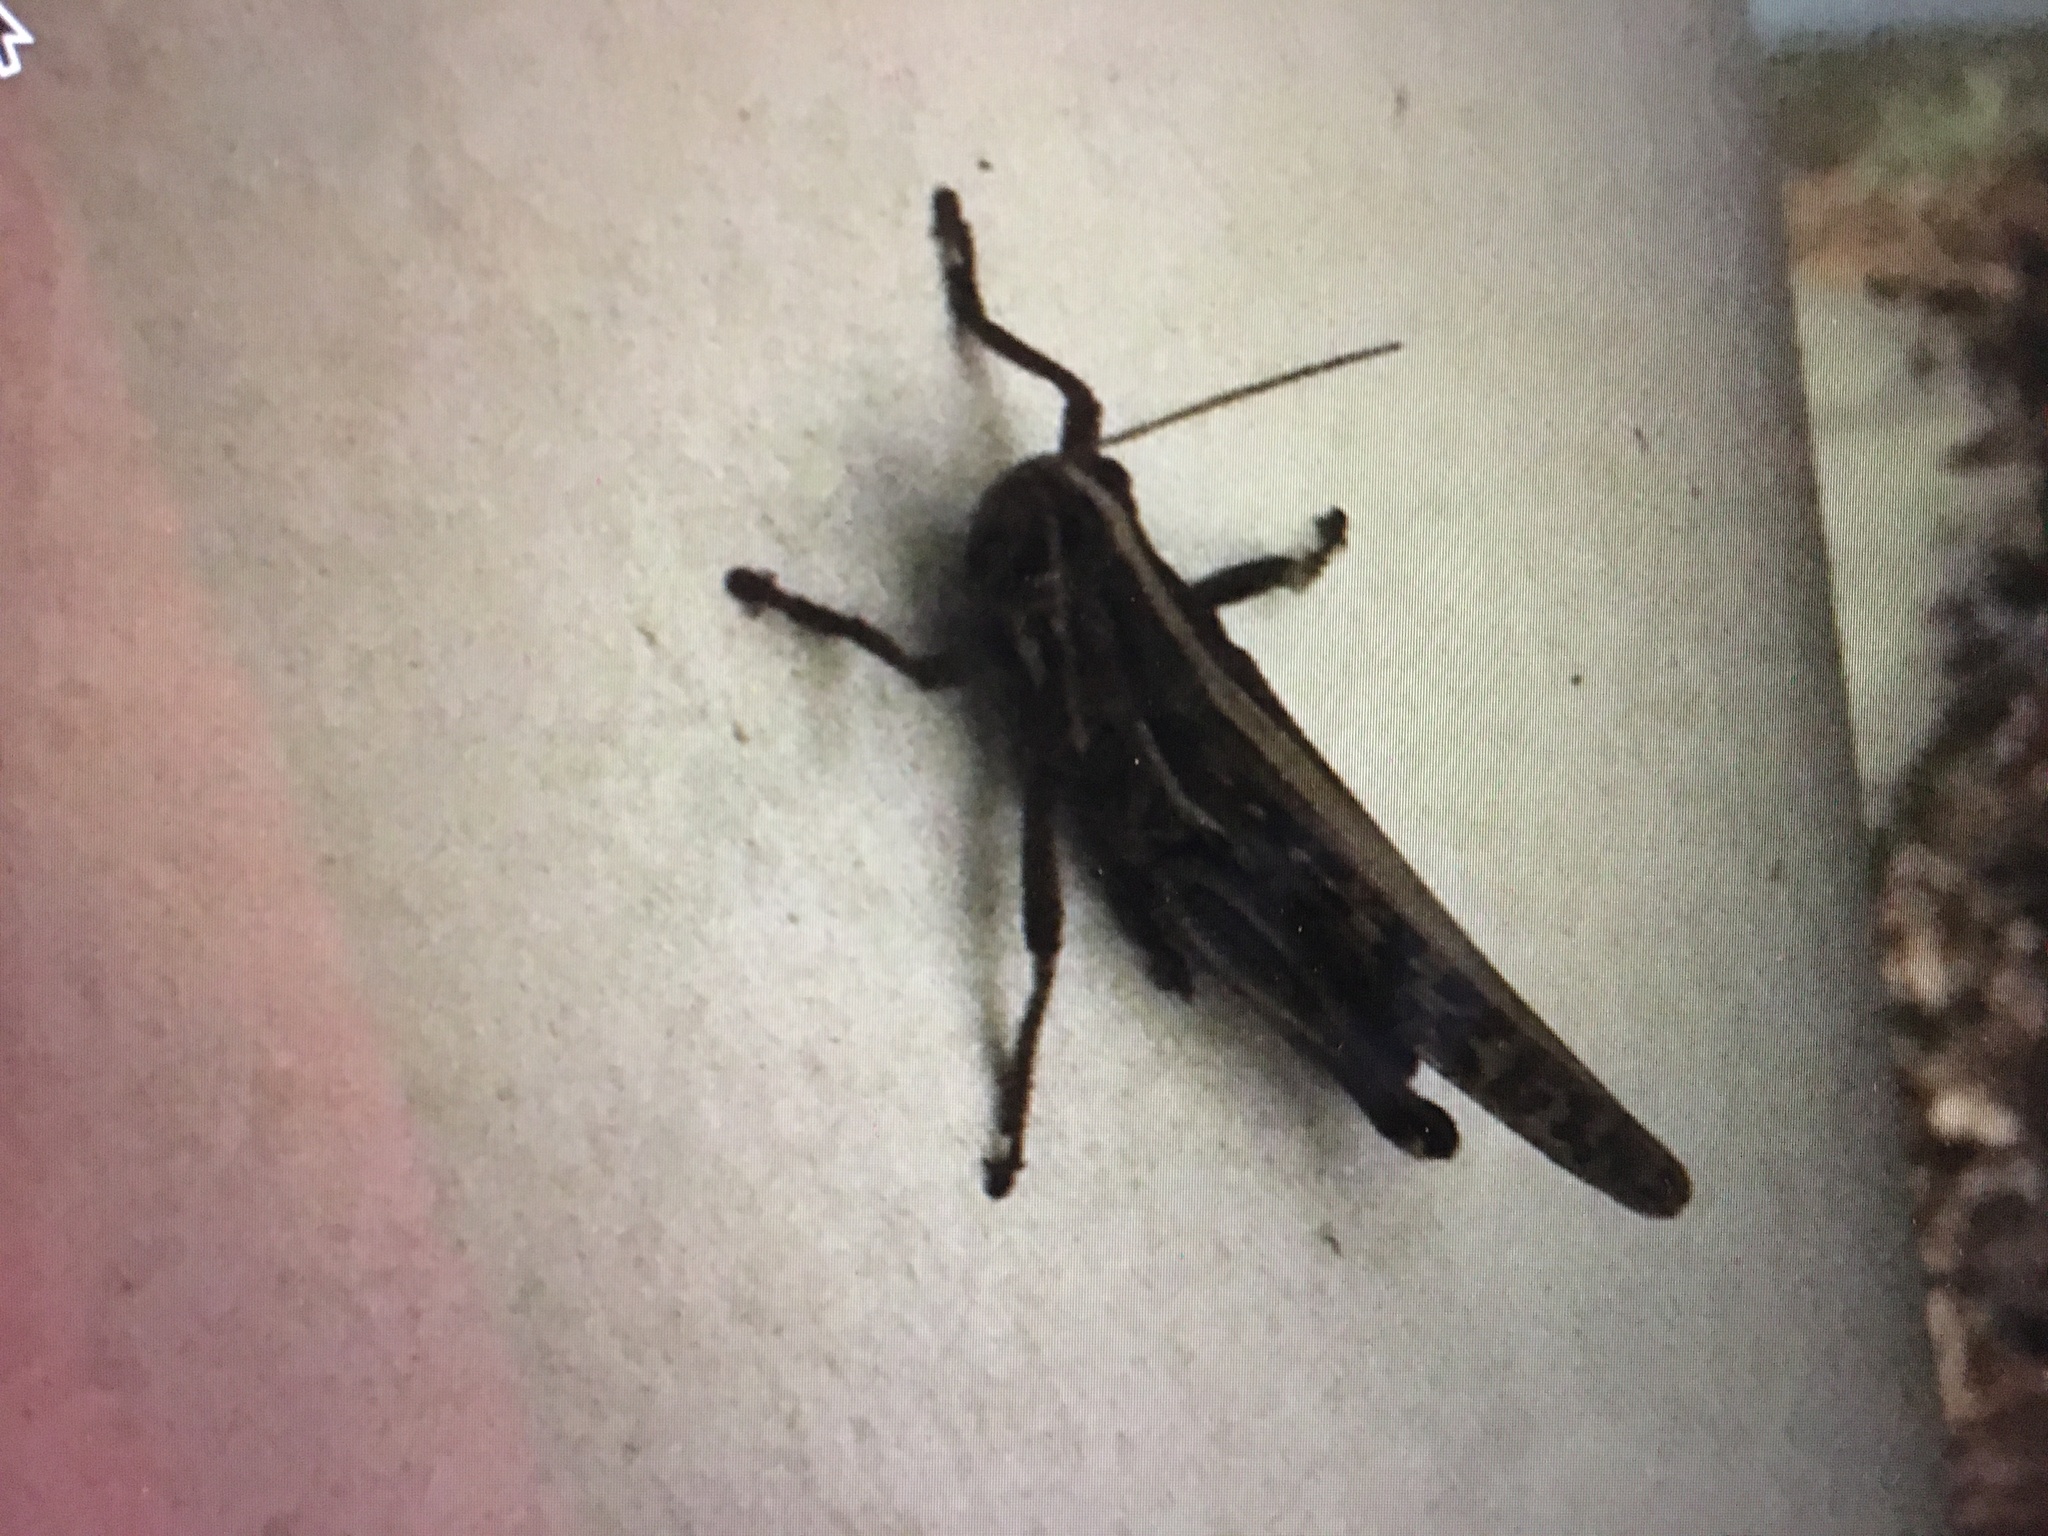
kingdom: Animalia
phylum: Arthropoda
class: Insecta
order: Orthoptera
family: Acrididae
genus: Schistocerca
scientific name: Schistocerca americana
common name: American bird locust
